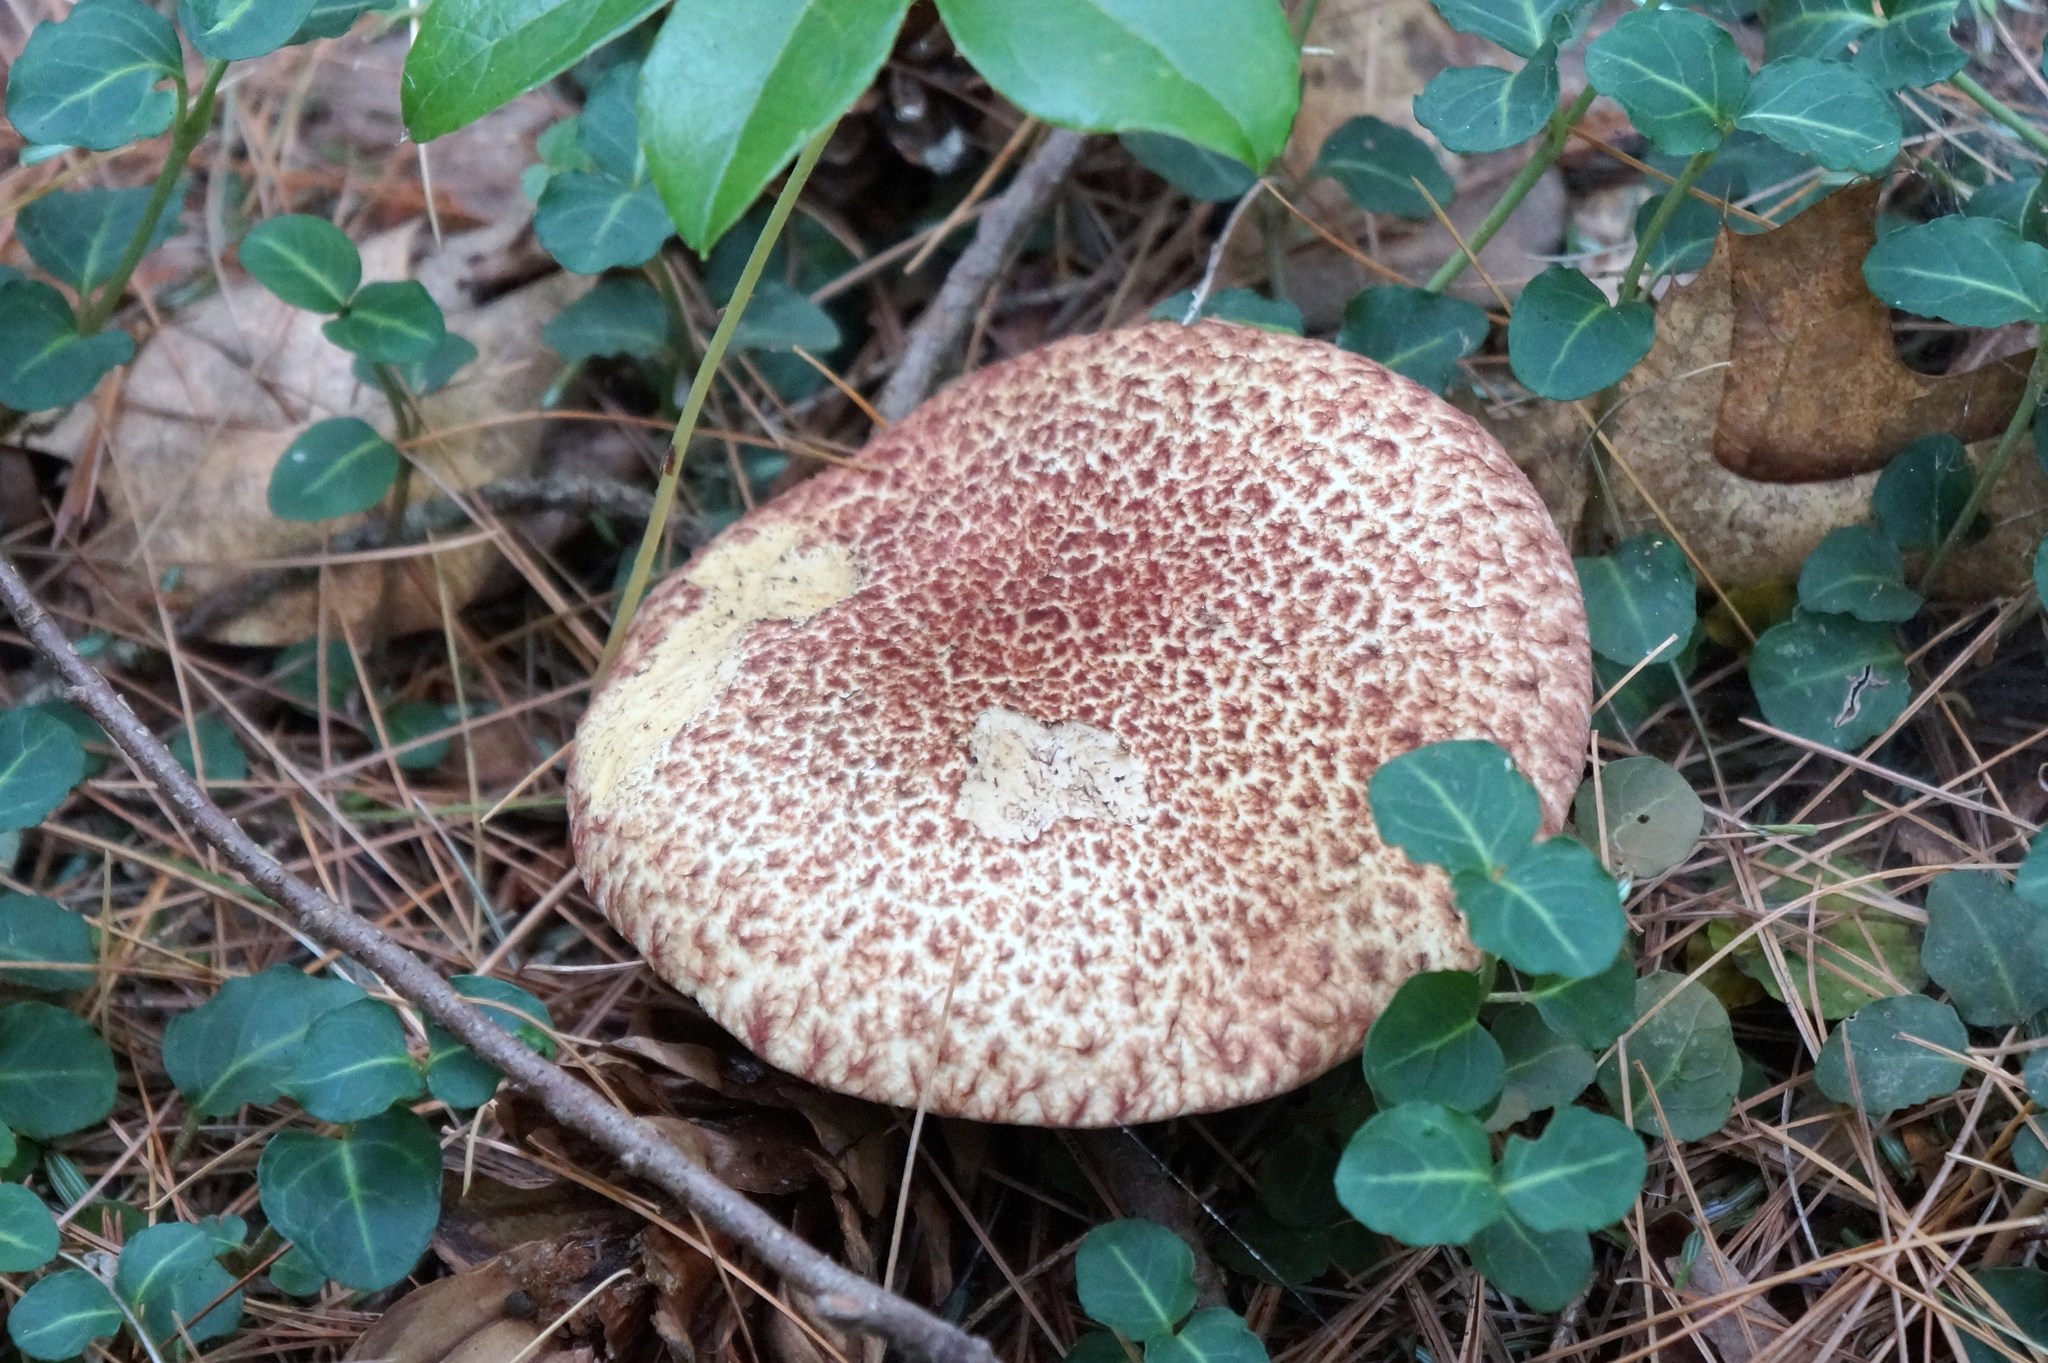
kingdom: Fungi
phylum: Basidiomycota
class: Agaricomycetes
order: Boletales
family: Suillaceae
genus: Suillus
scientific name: Suillus spraguei
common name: Painted suillus
